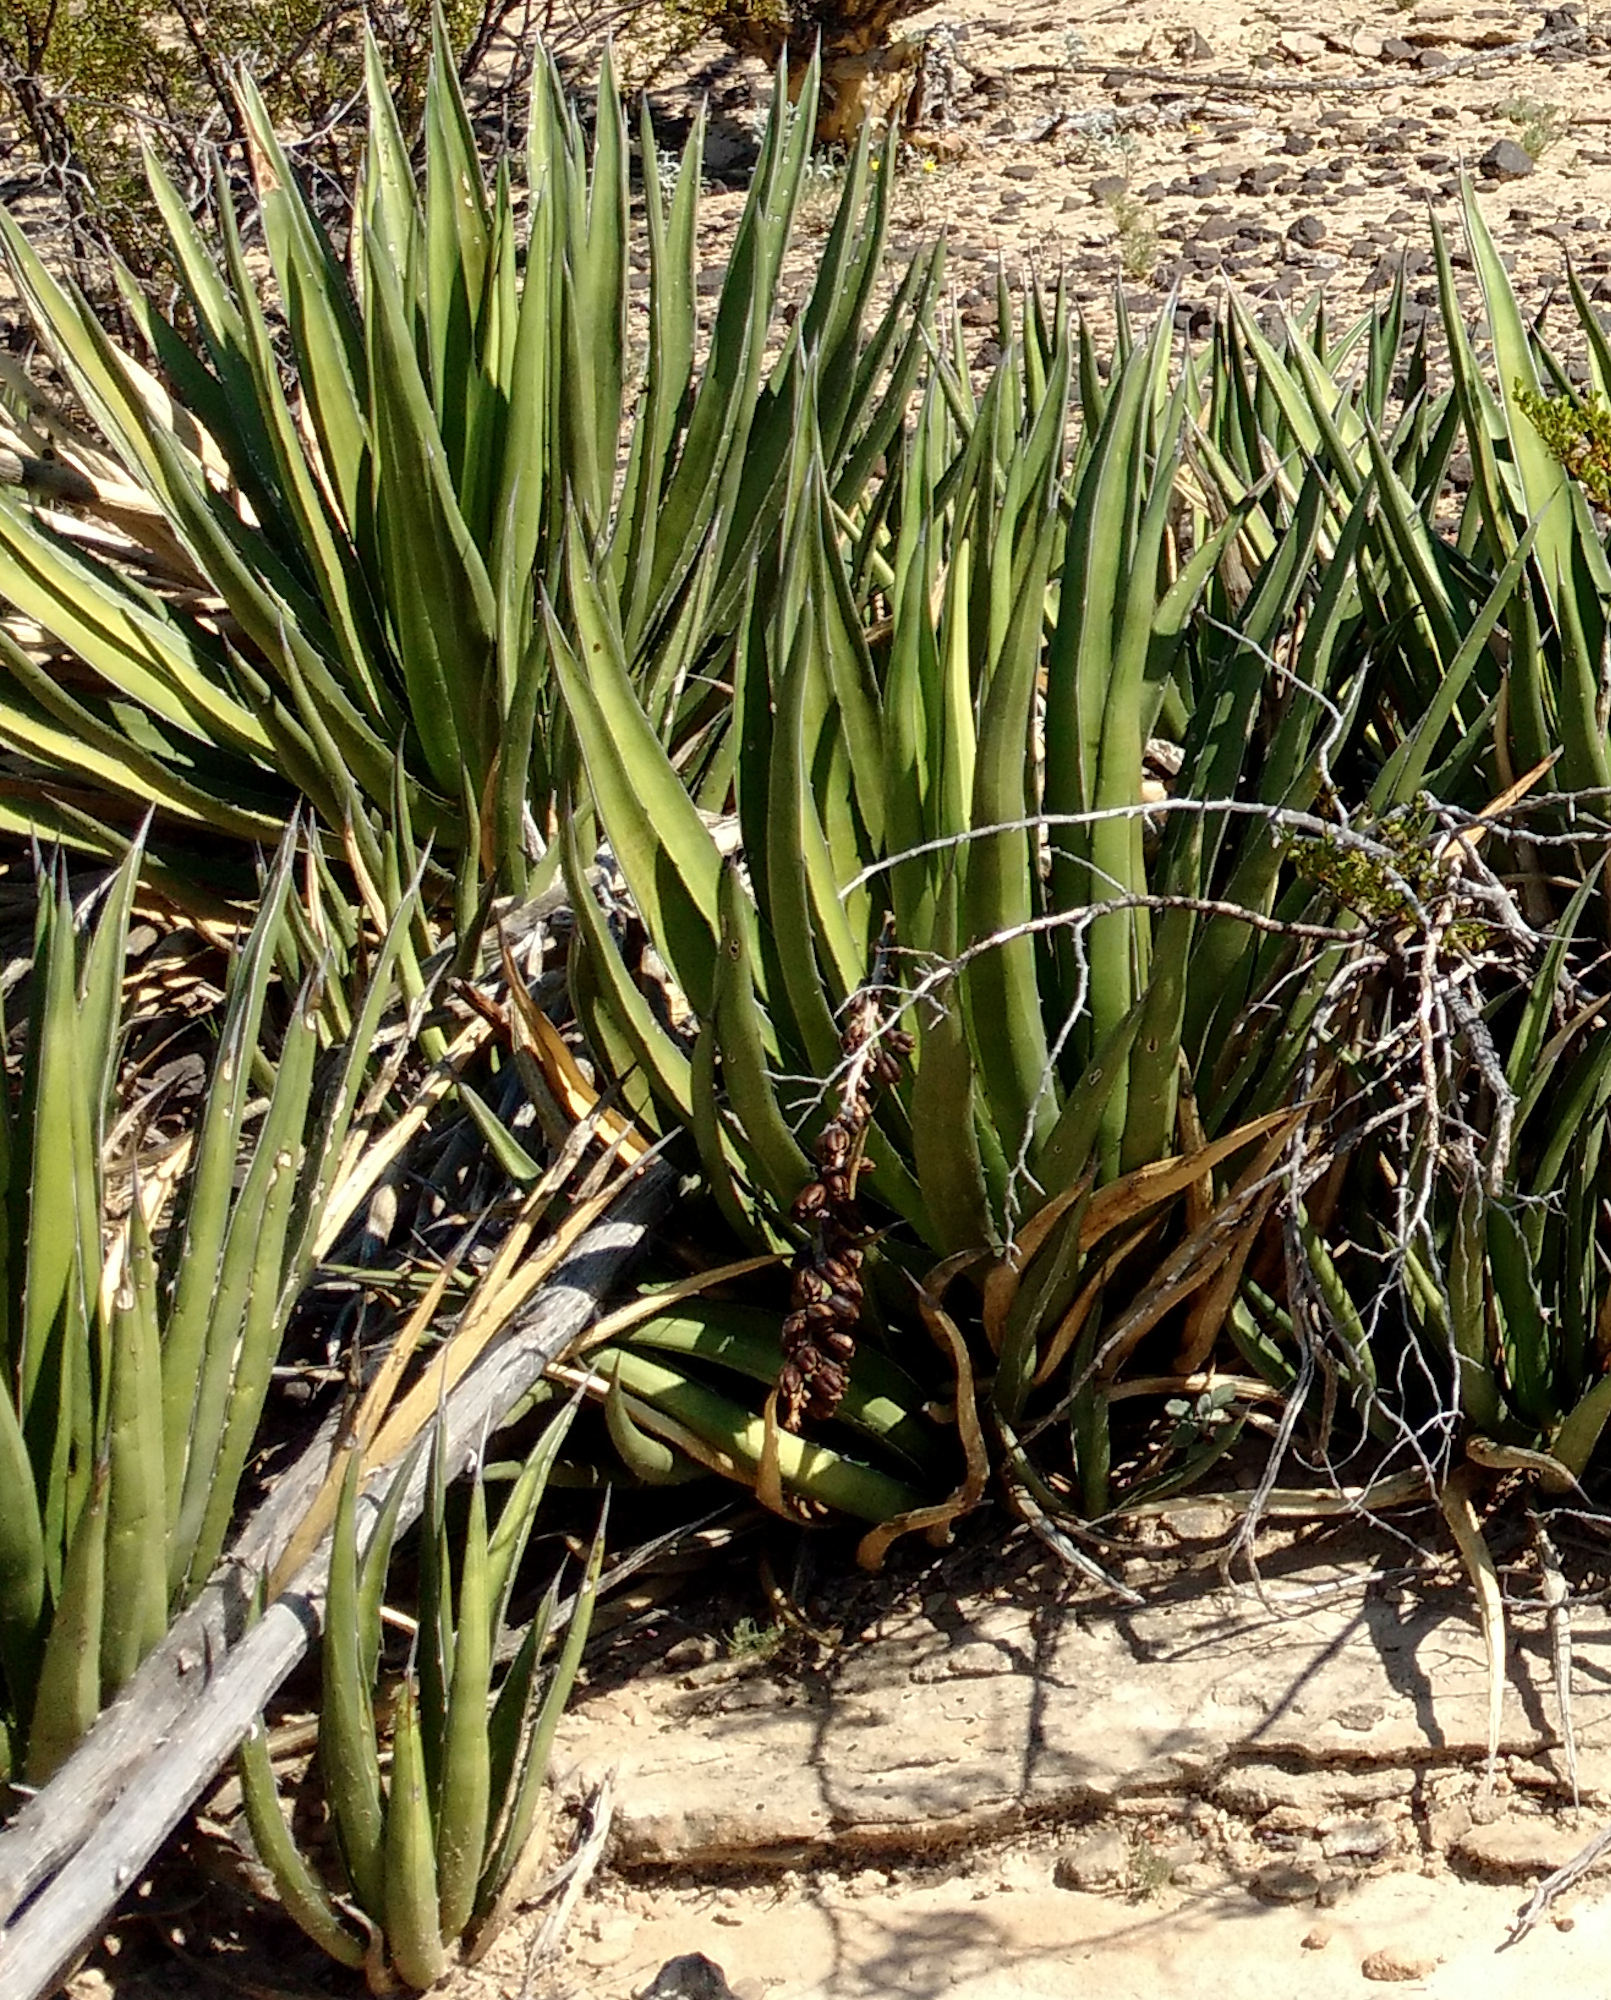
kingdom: Plantae
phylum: Tracheophyta
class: Liliopsida
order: Asparagales
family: Asparagaceae
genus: Agave
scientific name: Agave lechuguilla
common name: Lecheguilla agave
